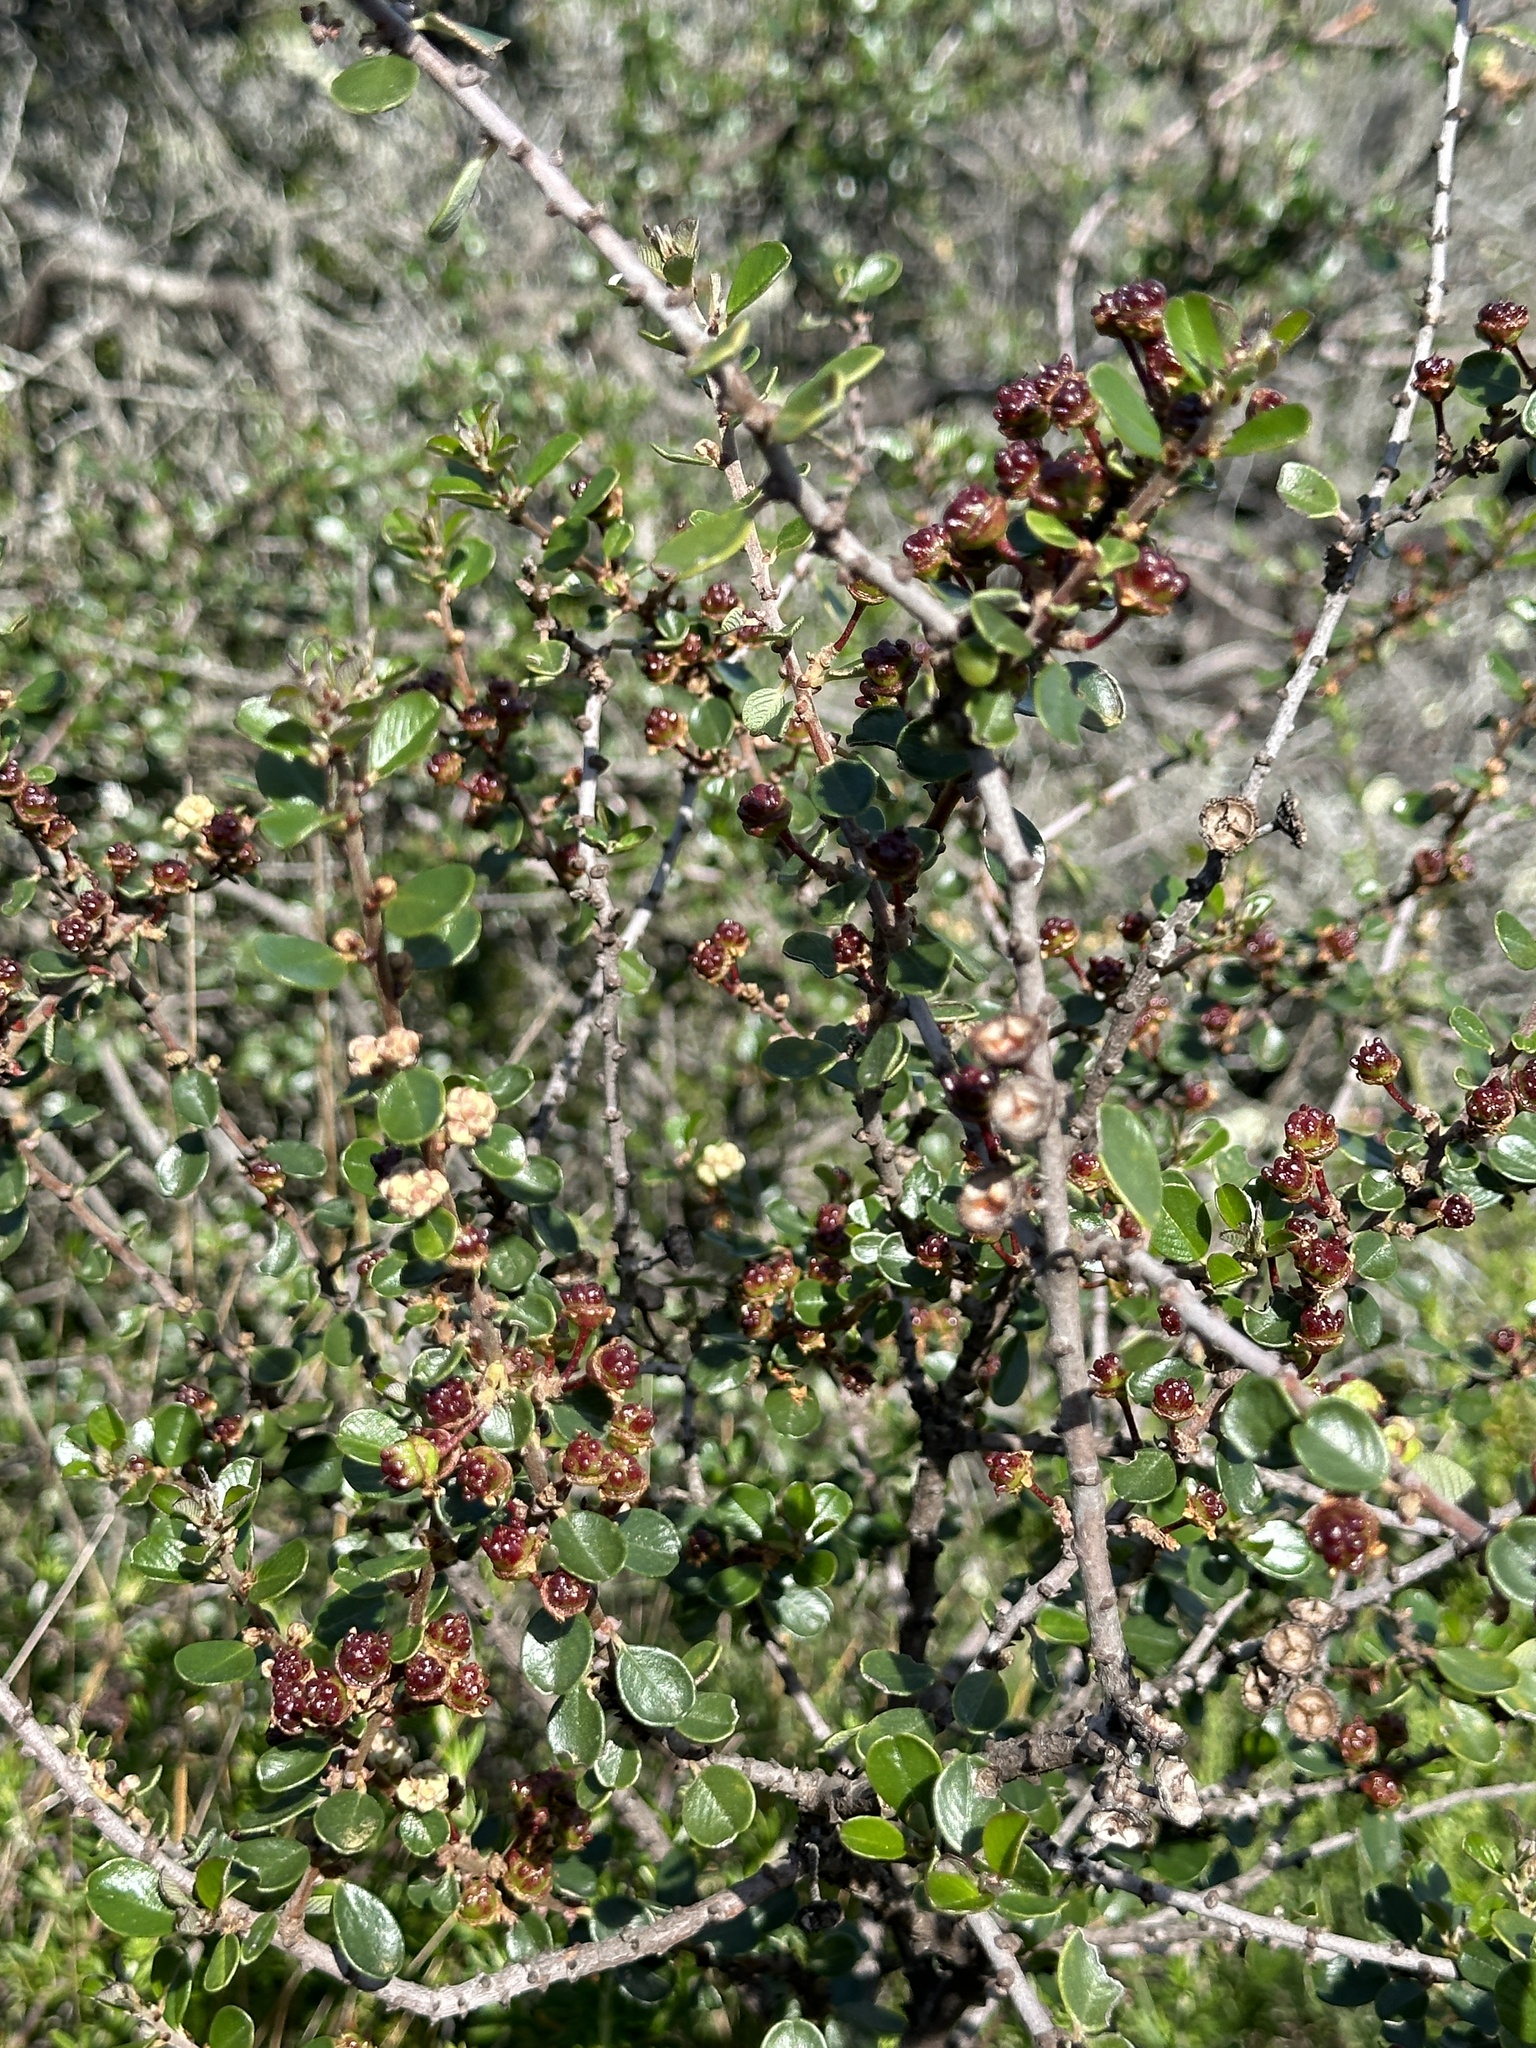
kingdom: Plantae
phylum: Tracheophyta
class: Magnoliopsida
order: Rosales
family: Rhamnaceae
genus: Ceanothus
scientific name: Ceanothus megacarpus
